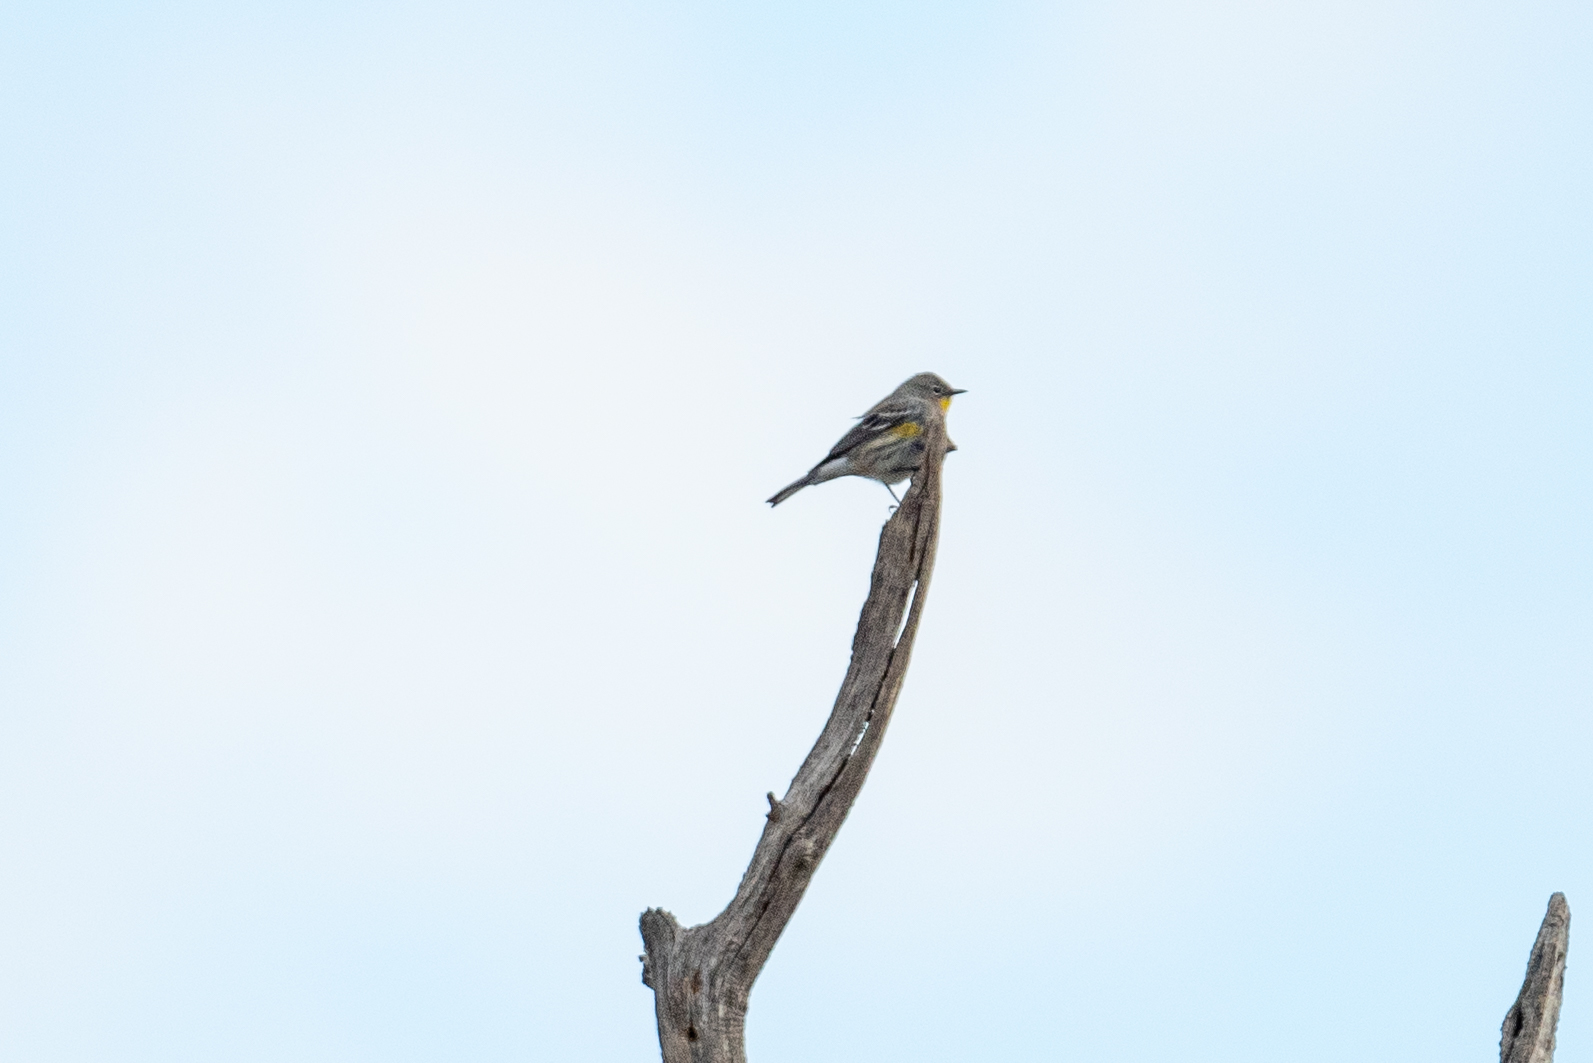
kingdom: Animalia
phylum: Chordata
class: Aves
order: Passeriformes
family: Parulidae
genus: Setophaga
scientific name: Setophaga coronata
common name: Myrtle warbler
